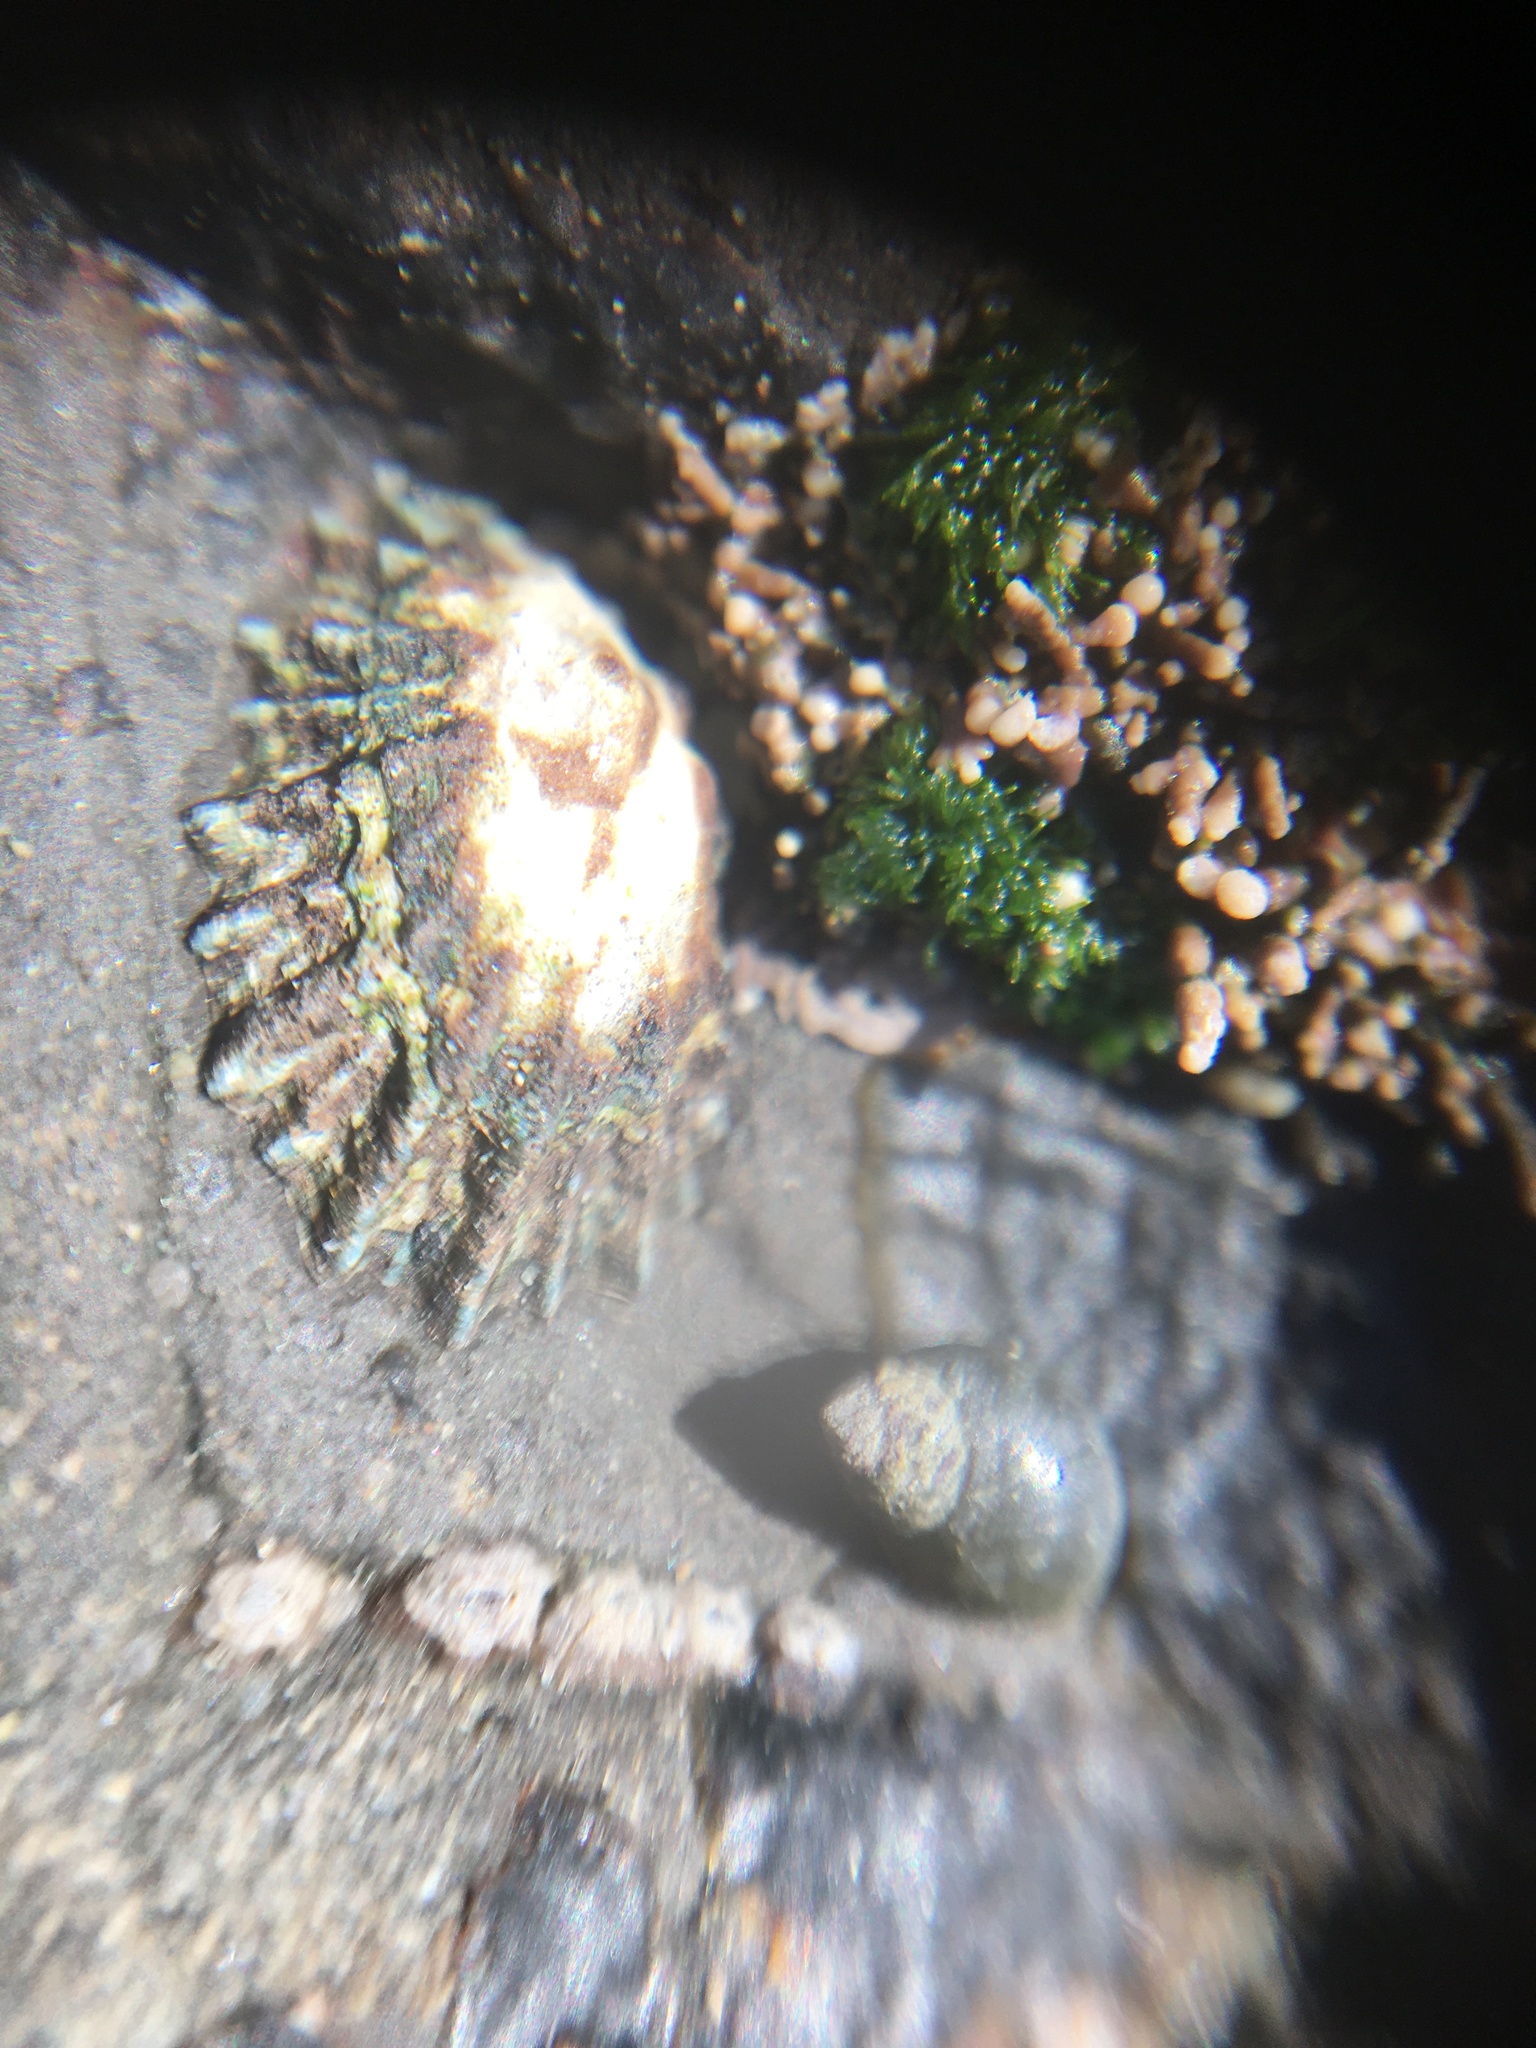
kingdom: Animalia
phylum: Mollusca
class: Gastropoda
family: Lottiidae
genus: Lottia
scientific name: Lottia scabra
